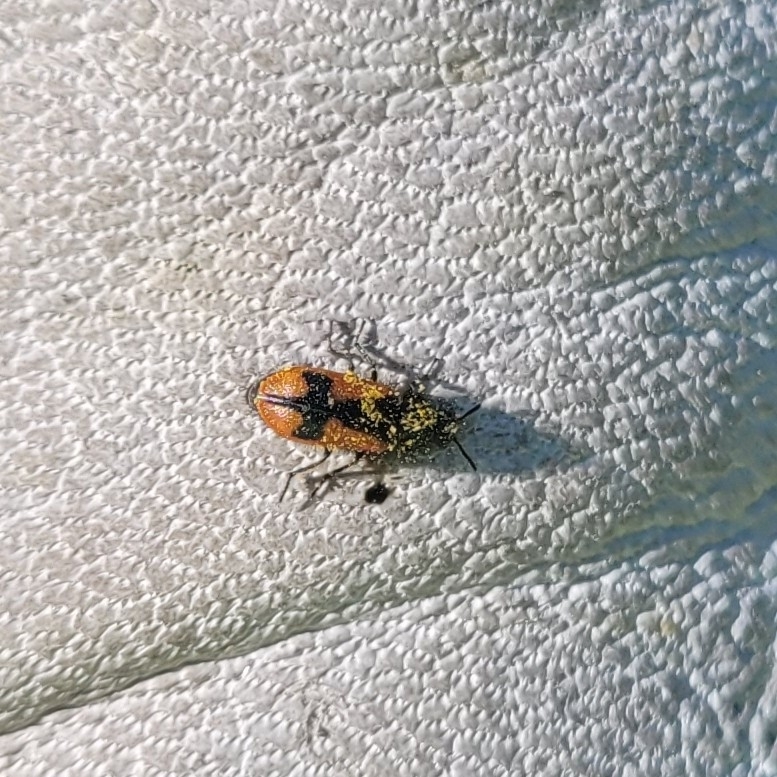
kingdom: Animalia
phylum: Arthropoda
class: Insecta
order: Coleoptera
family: Melyridae
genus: Arthrobrachus
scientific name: Arthrobrachus nigromaculatus
